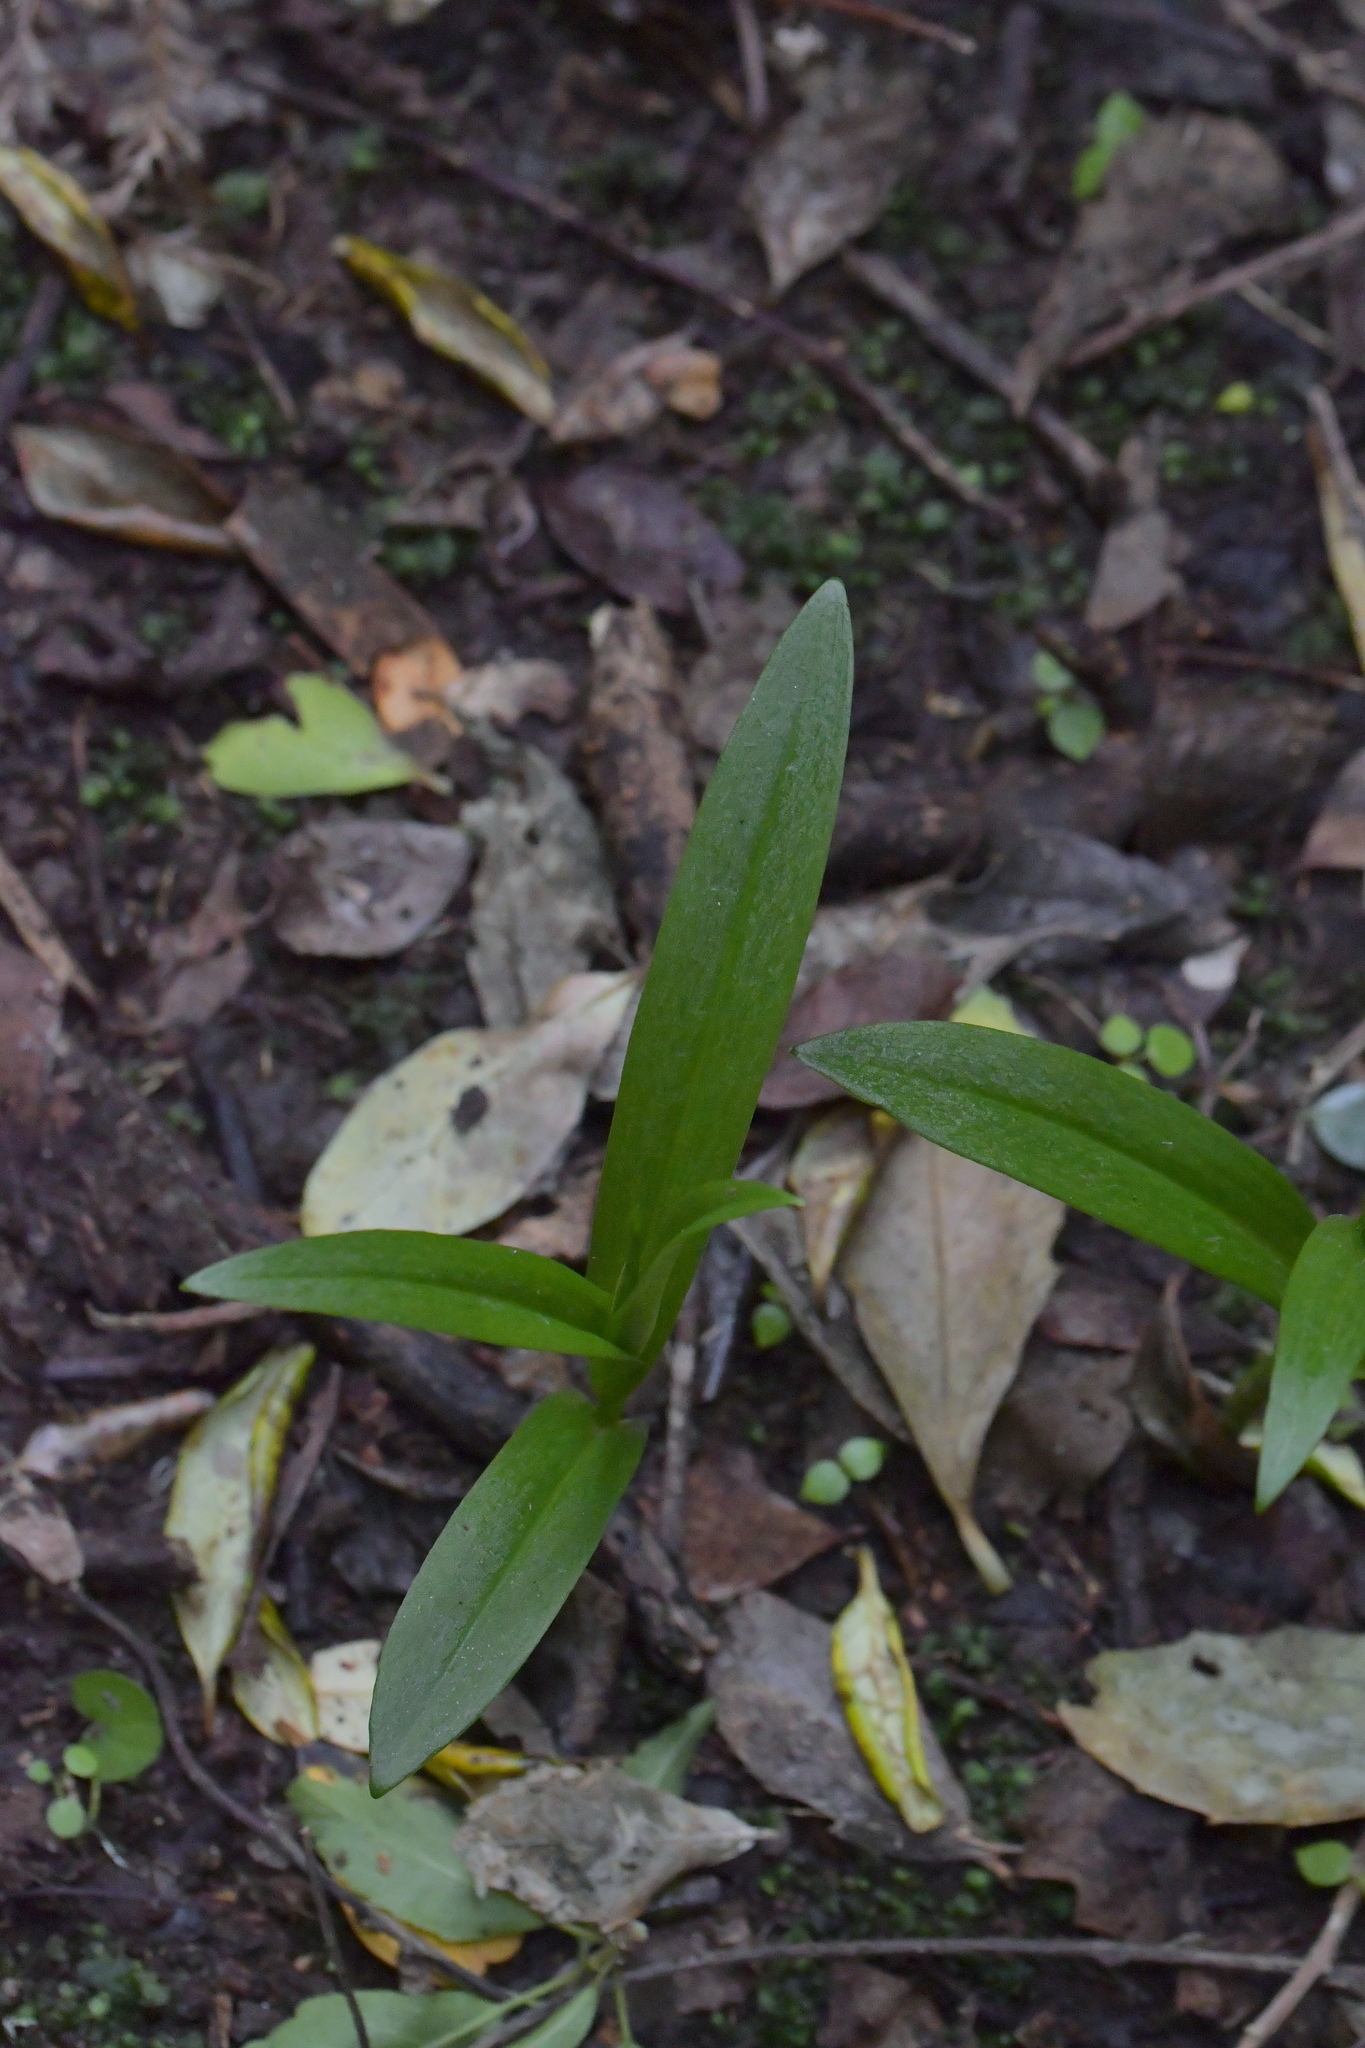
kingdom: Plantae
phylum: Tracheophyta
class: Liliopsida
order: Asparagales
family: Orchidaceae
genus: Pterostylis
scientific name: Pterostylis silvicultrix
